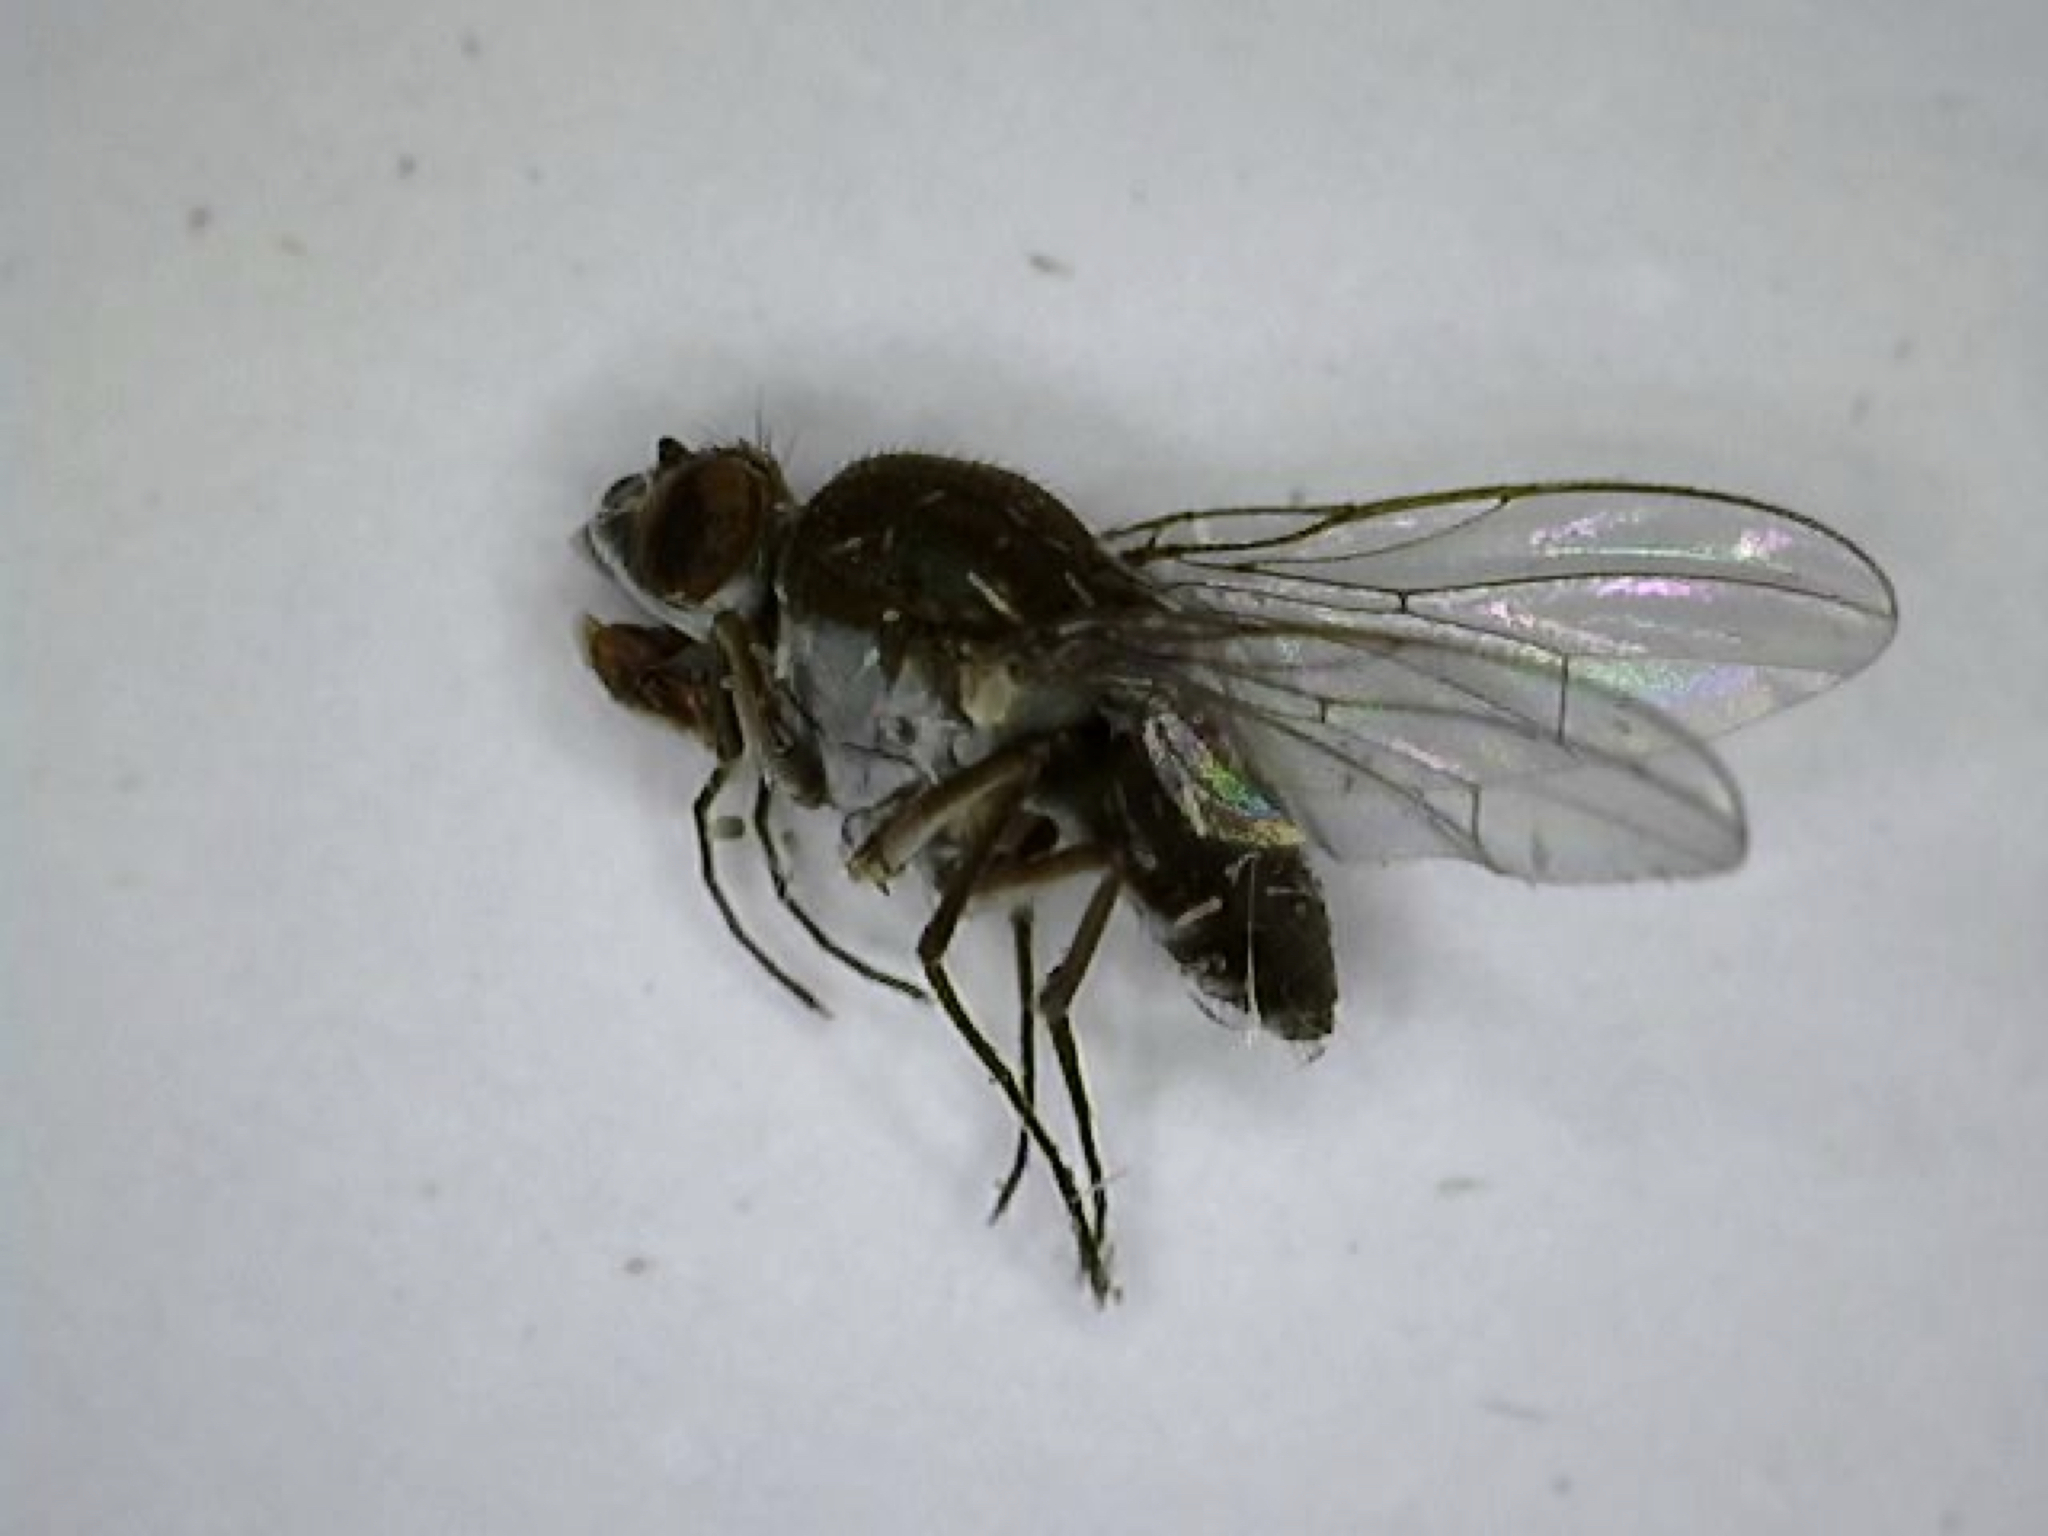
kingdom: Animalia
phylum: Arthropoda
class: Insecta
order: Diptera
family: Ephydridae
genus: Brachydeutera
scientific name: Brachydeutera argentata
